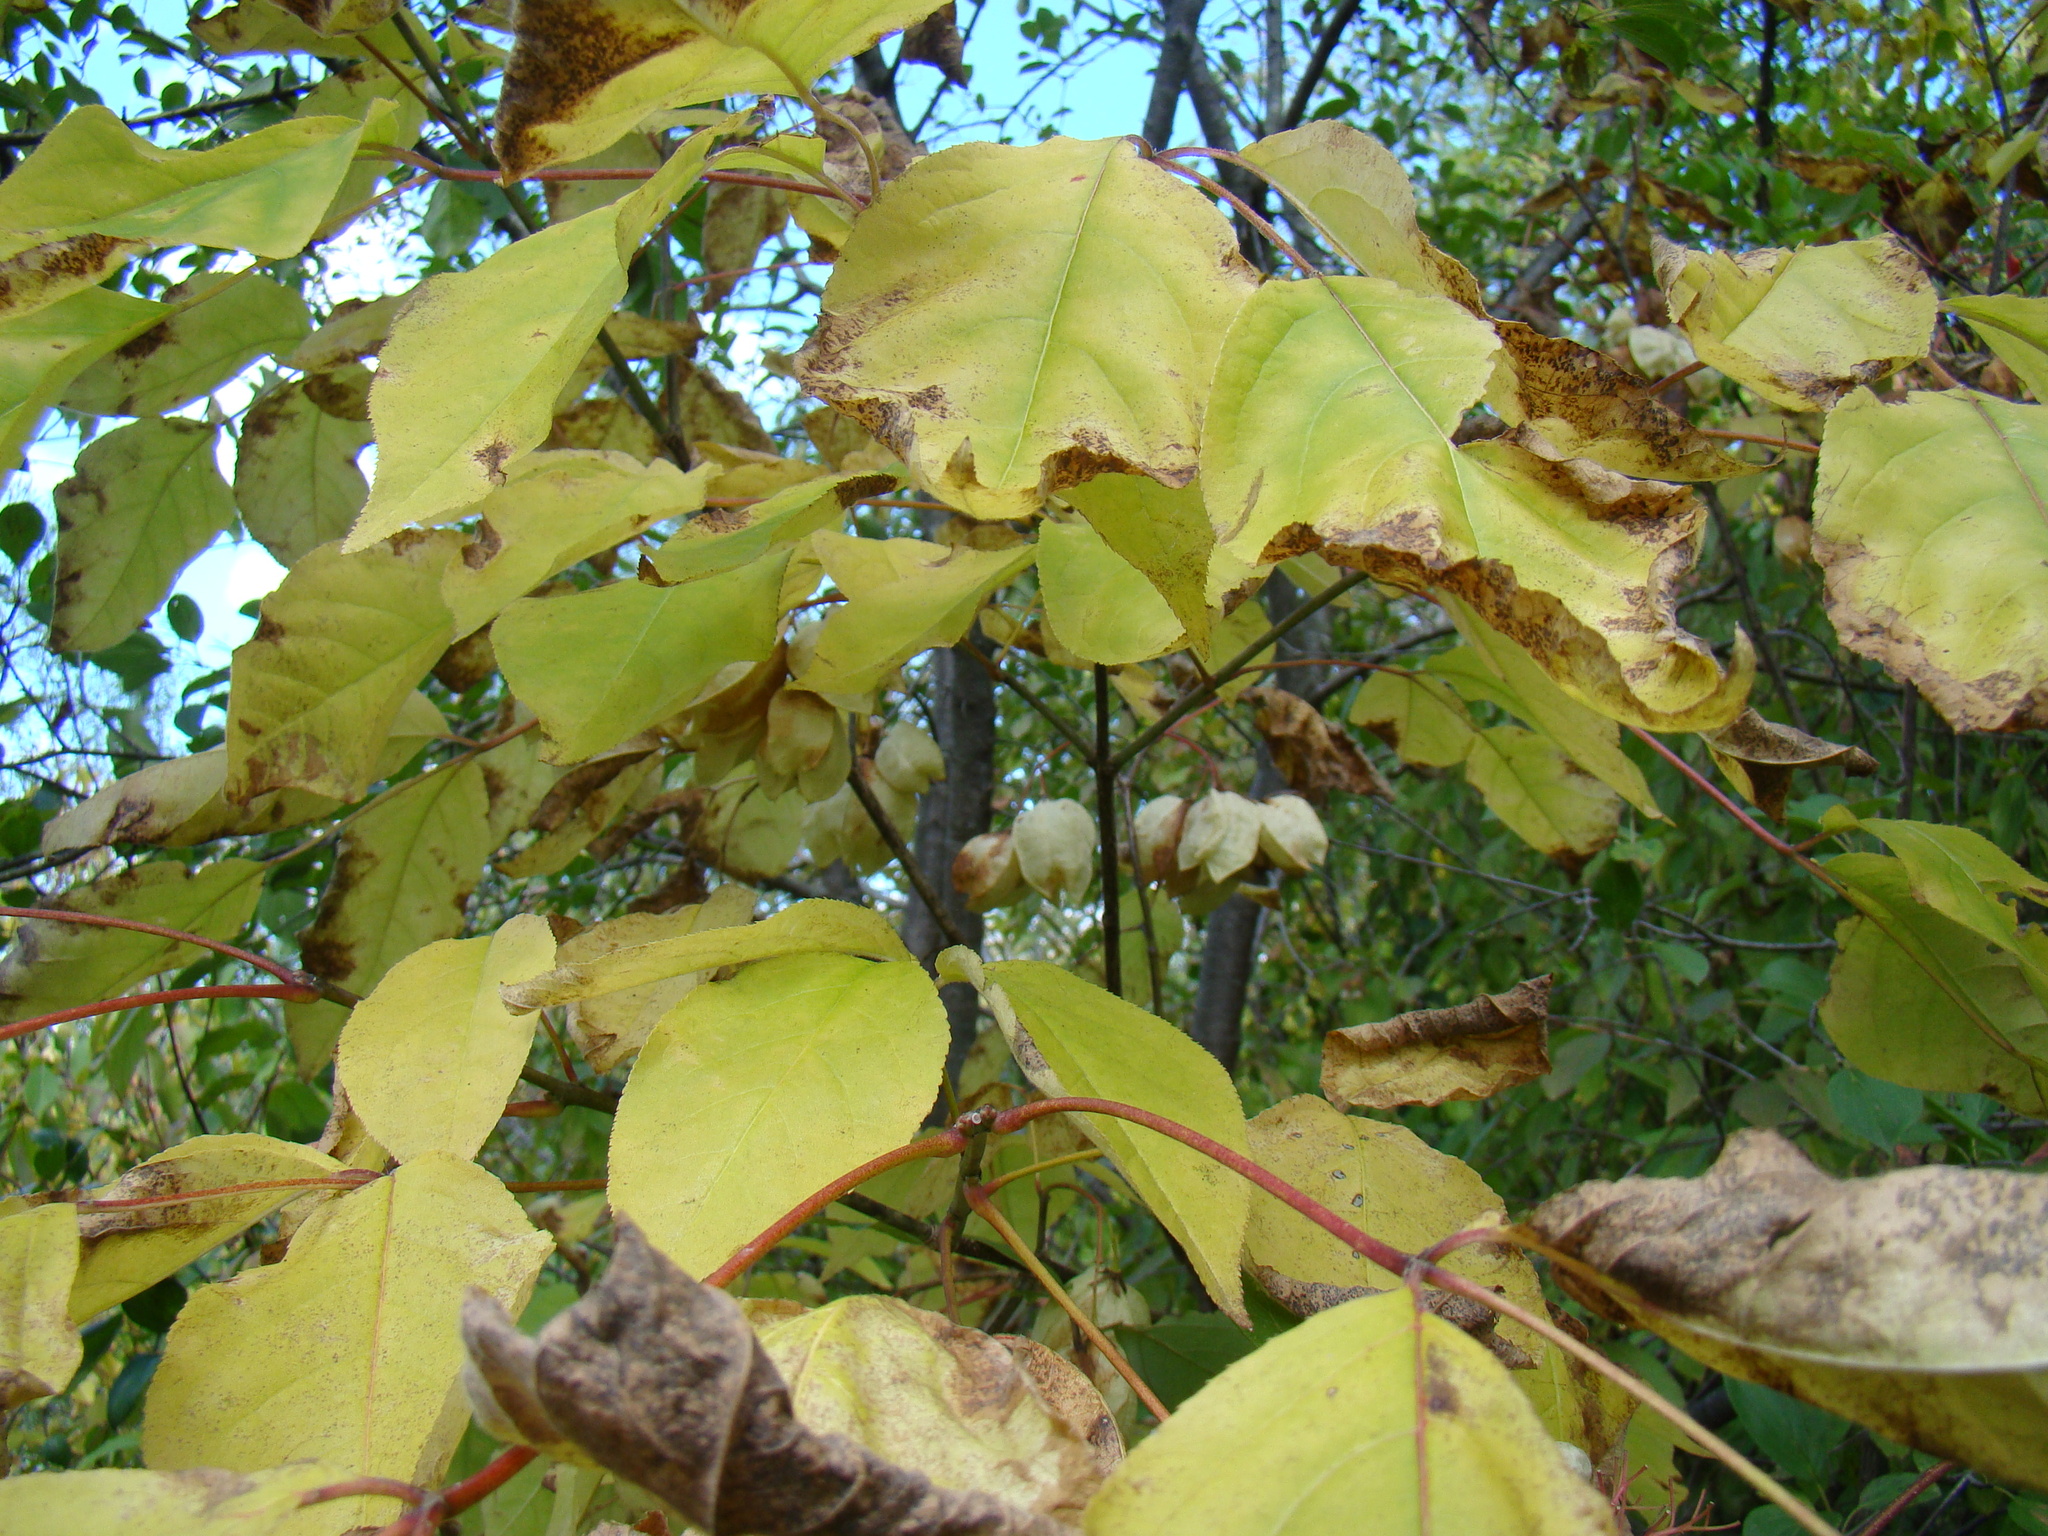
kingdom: Plantae
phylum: Tracheophyta
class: Magnoliopsida
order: Crossosomatales
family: Staphyleaceae
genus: Staphylea
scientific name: Staphylea trifolia
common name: American bladdernut
